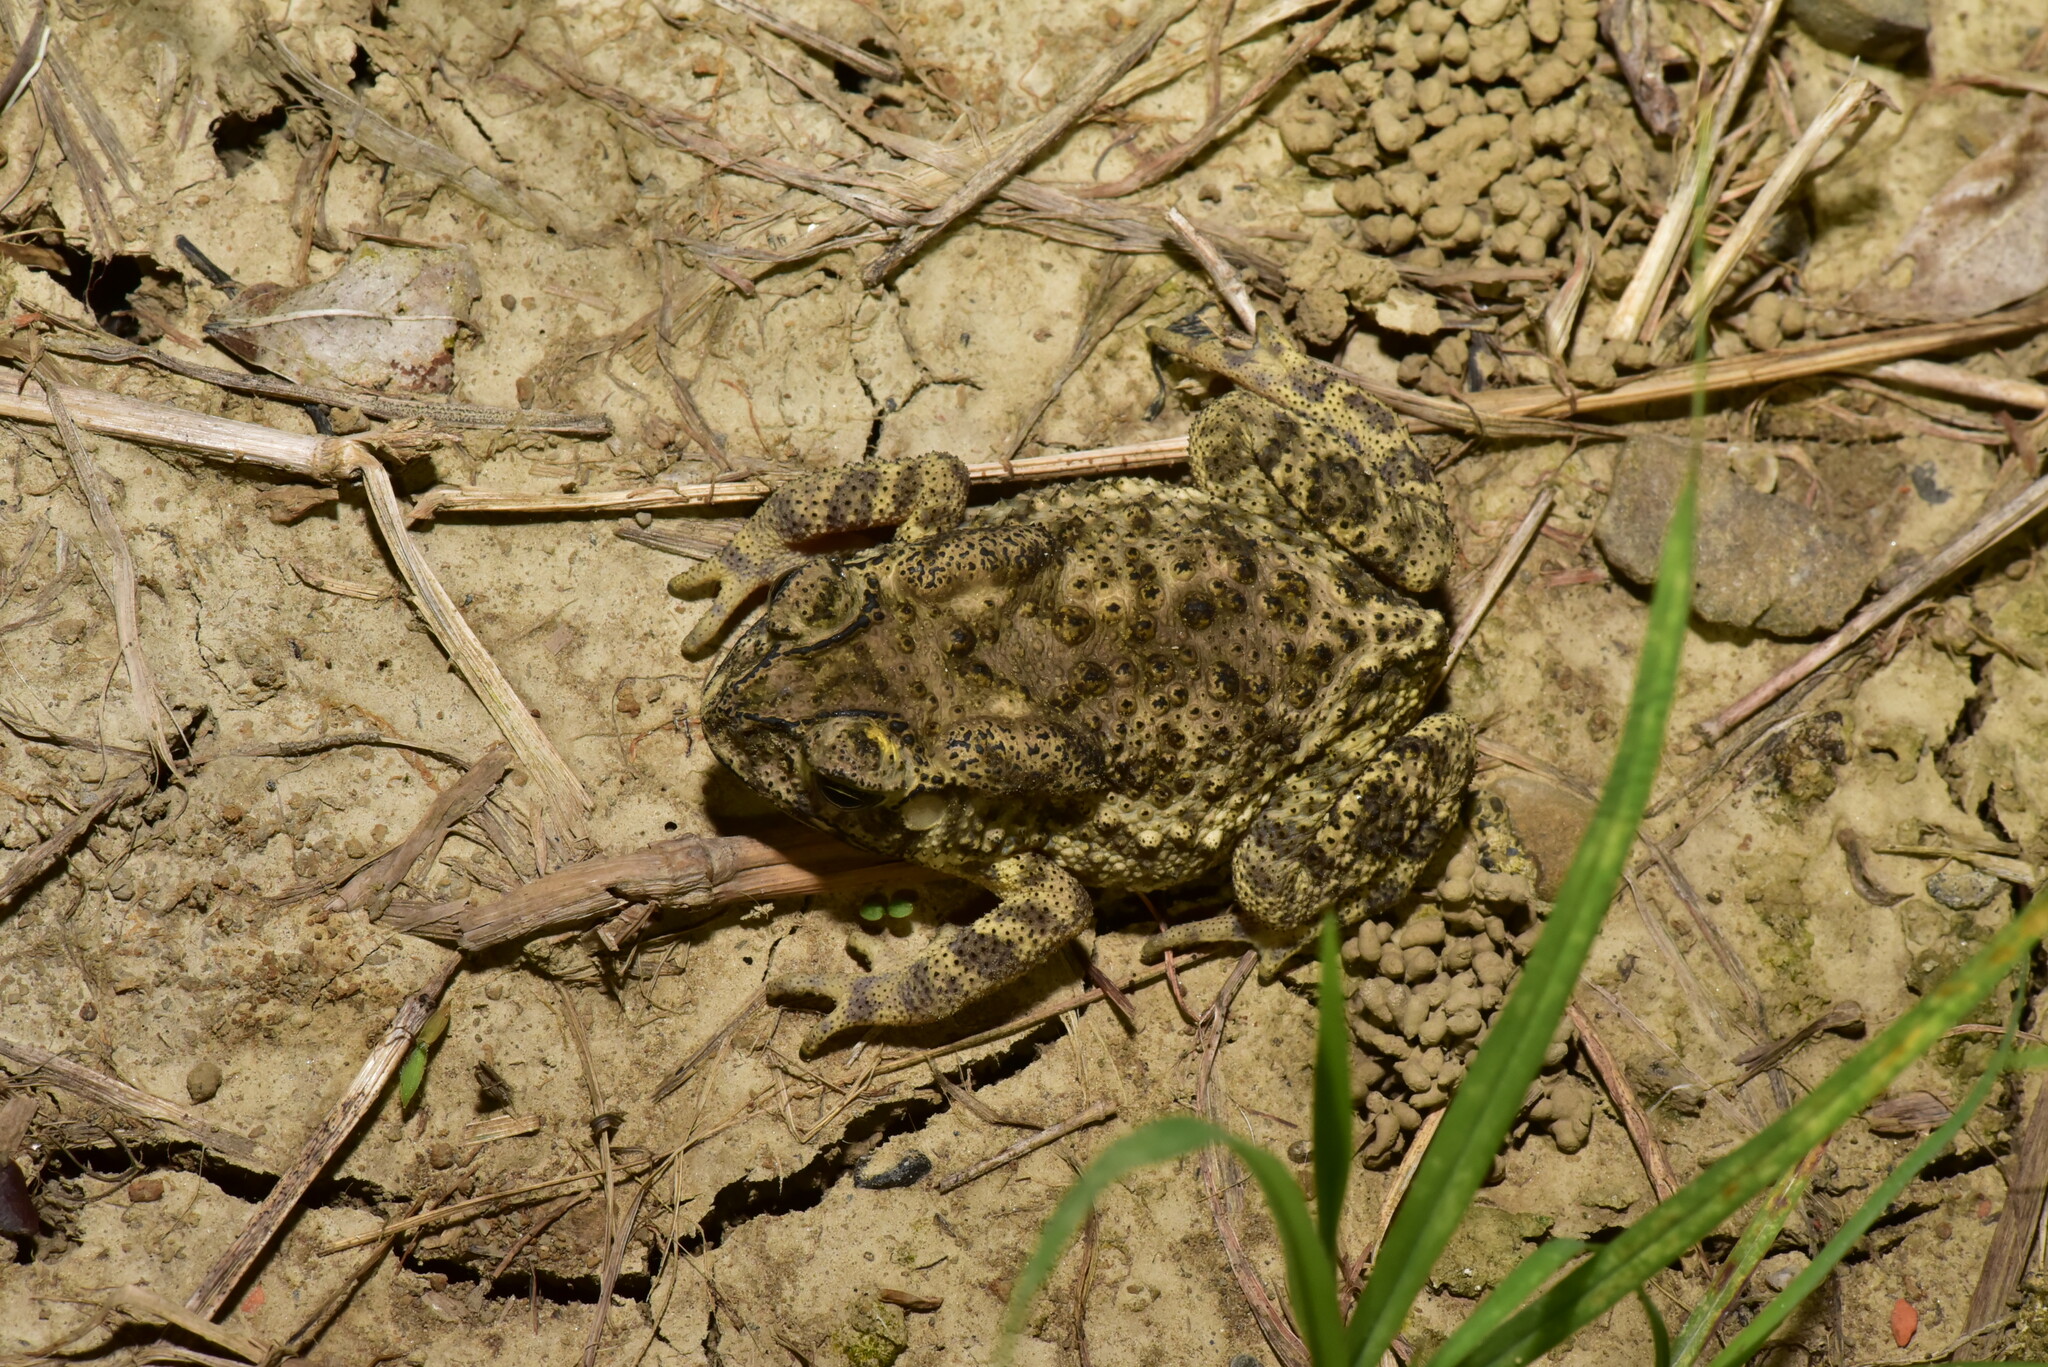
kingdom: Animalia
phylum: Chordata
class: Amphibia
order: Anura
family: Bufonidae
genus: Duttaphrynus
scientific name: Duttaphrynus melanostictus
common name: Common sunda toad
